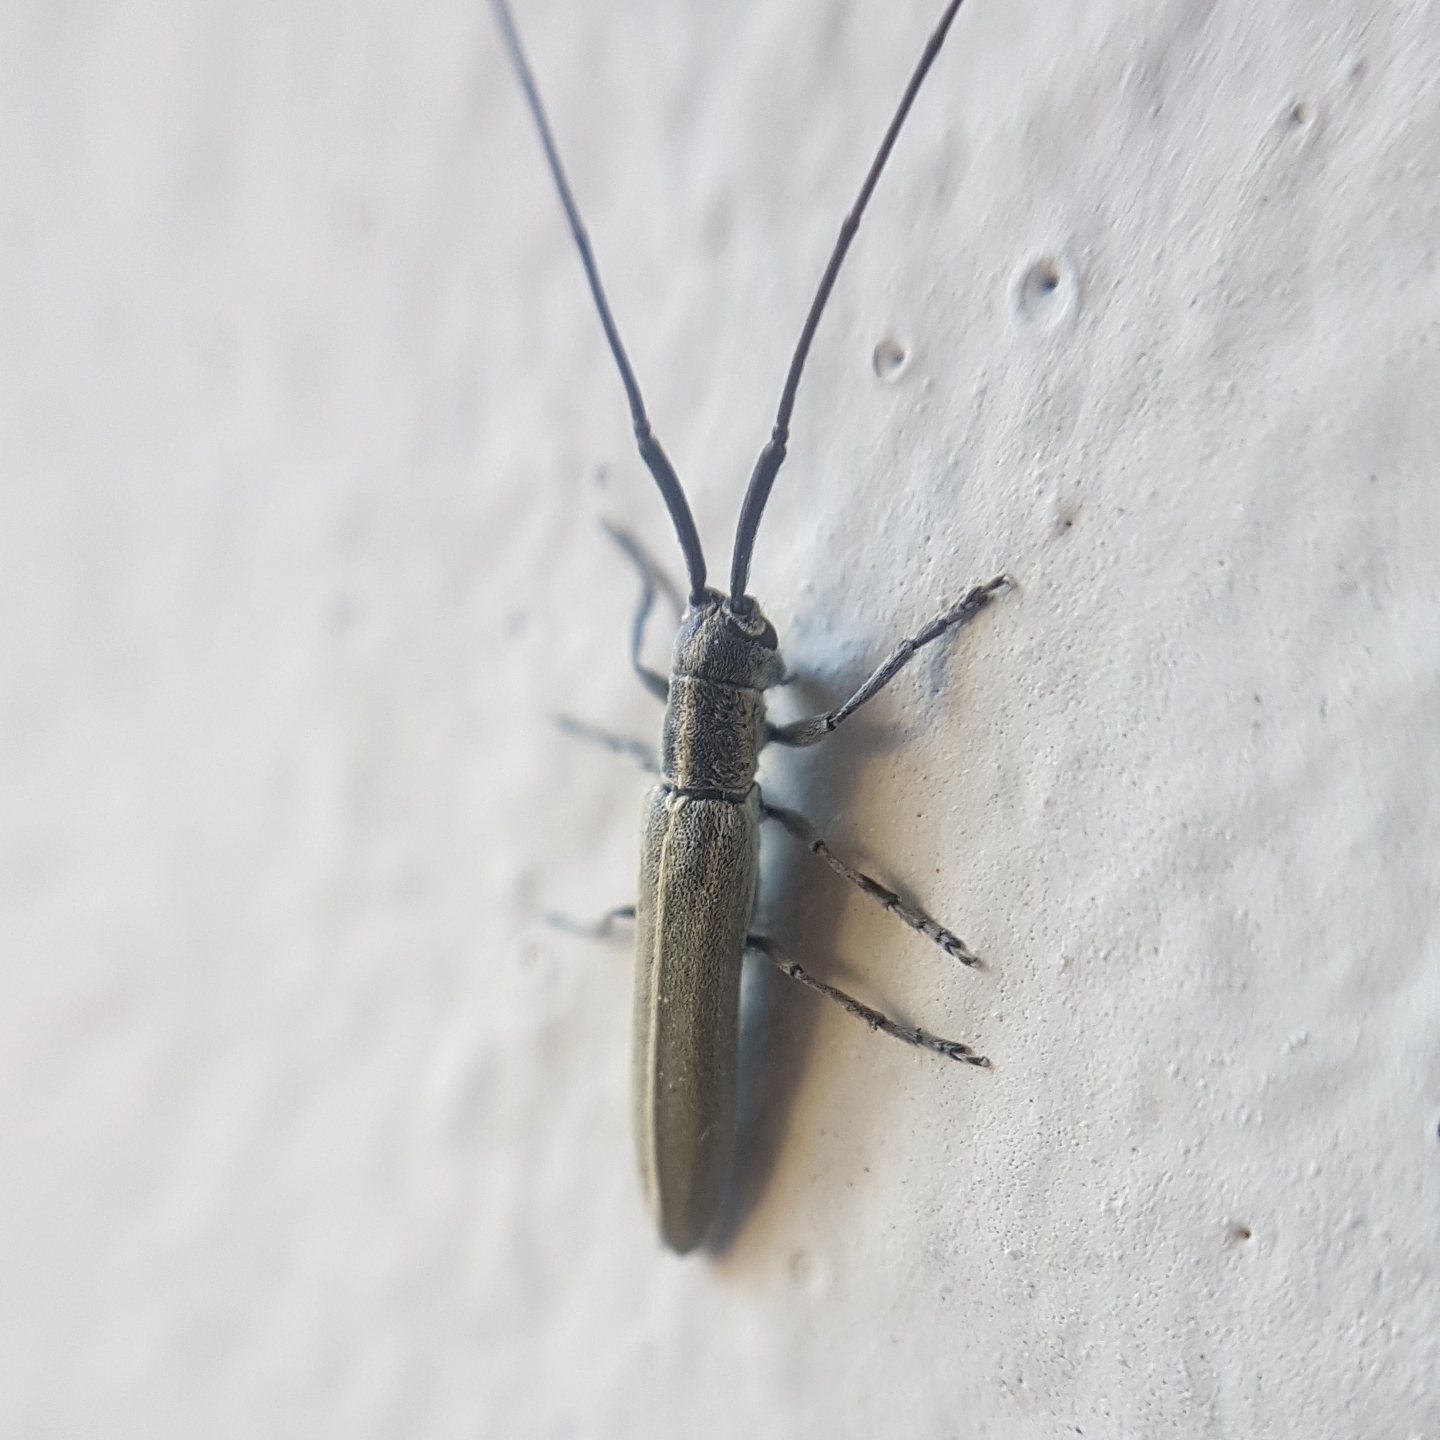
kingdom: Animalia
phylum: Arthropoda
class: Insecta
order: Coleoptera
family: Cerambycidae
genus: Calamobius
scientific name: Calamobius filum
